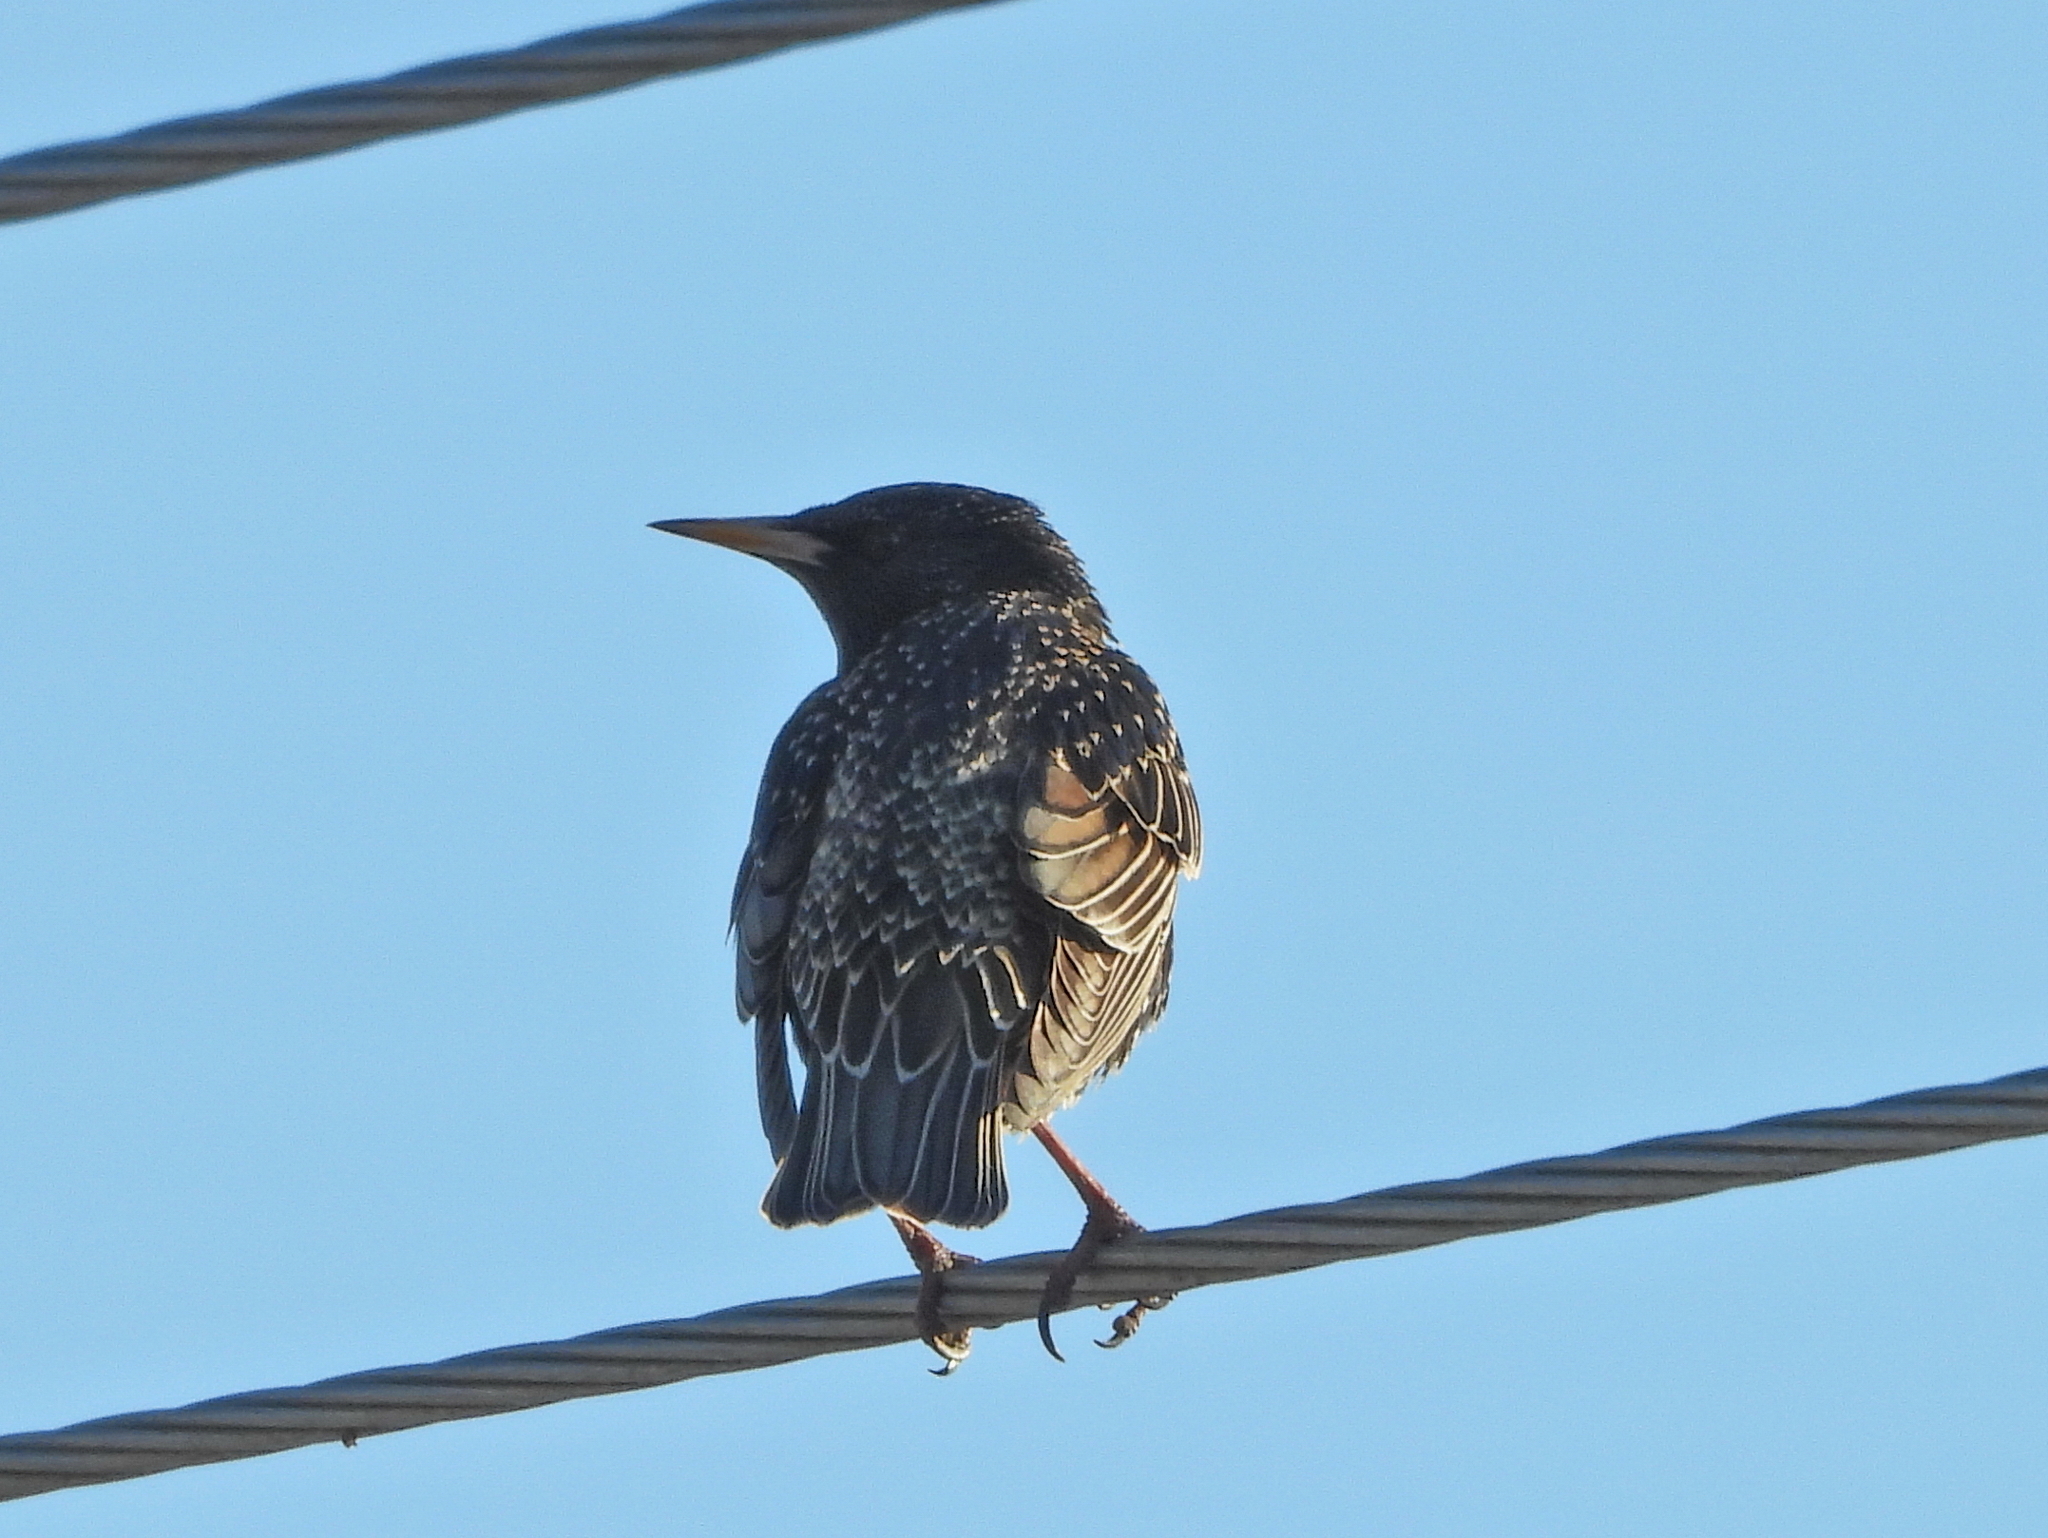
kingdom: Animalia
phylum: Chordata
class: Aves
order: Passeriformes
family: Sturnidae
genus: Sturnus
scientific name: Sturnus vulgaris
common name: Common starling
